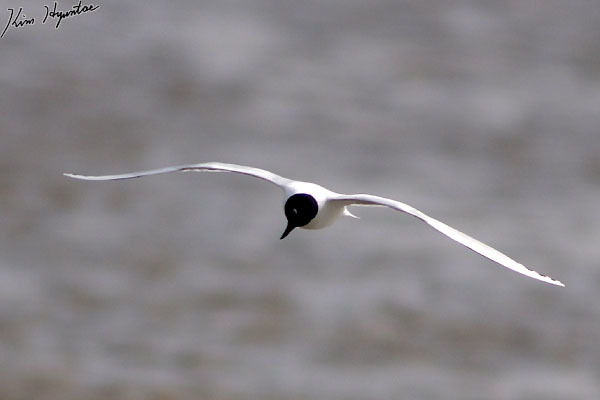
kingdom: Animalia
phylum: Chordata
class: Aves
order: Charadriiformes
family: Laridae
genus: Chroicocephalus
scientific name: Chroicocephalus saundersi
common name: Saunders's gull
